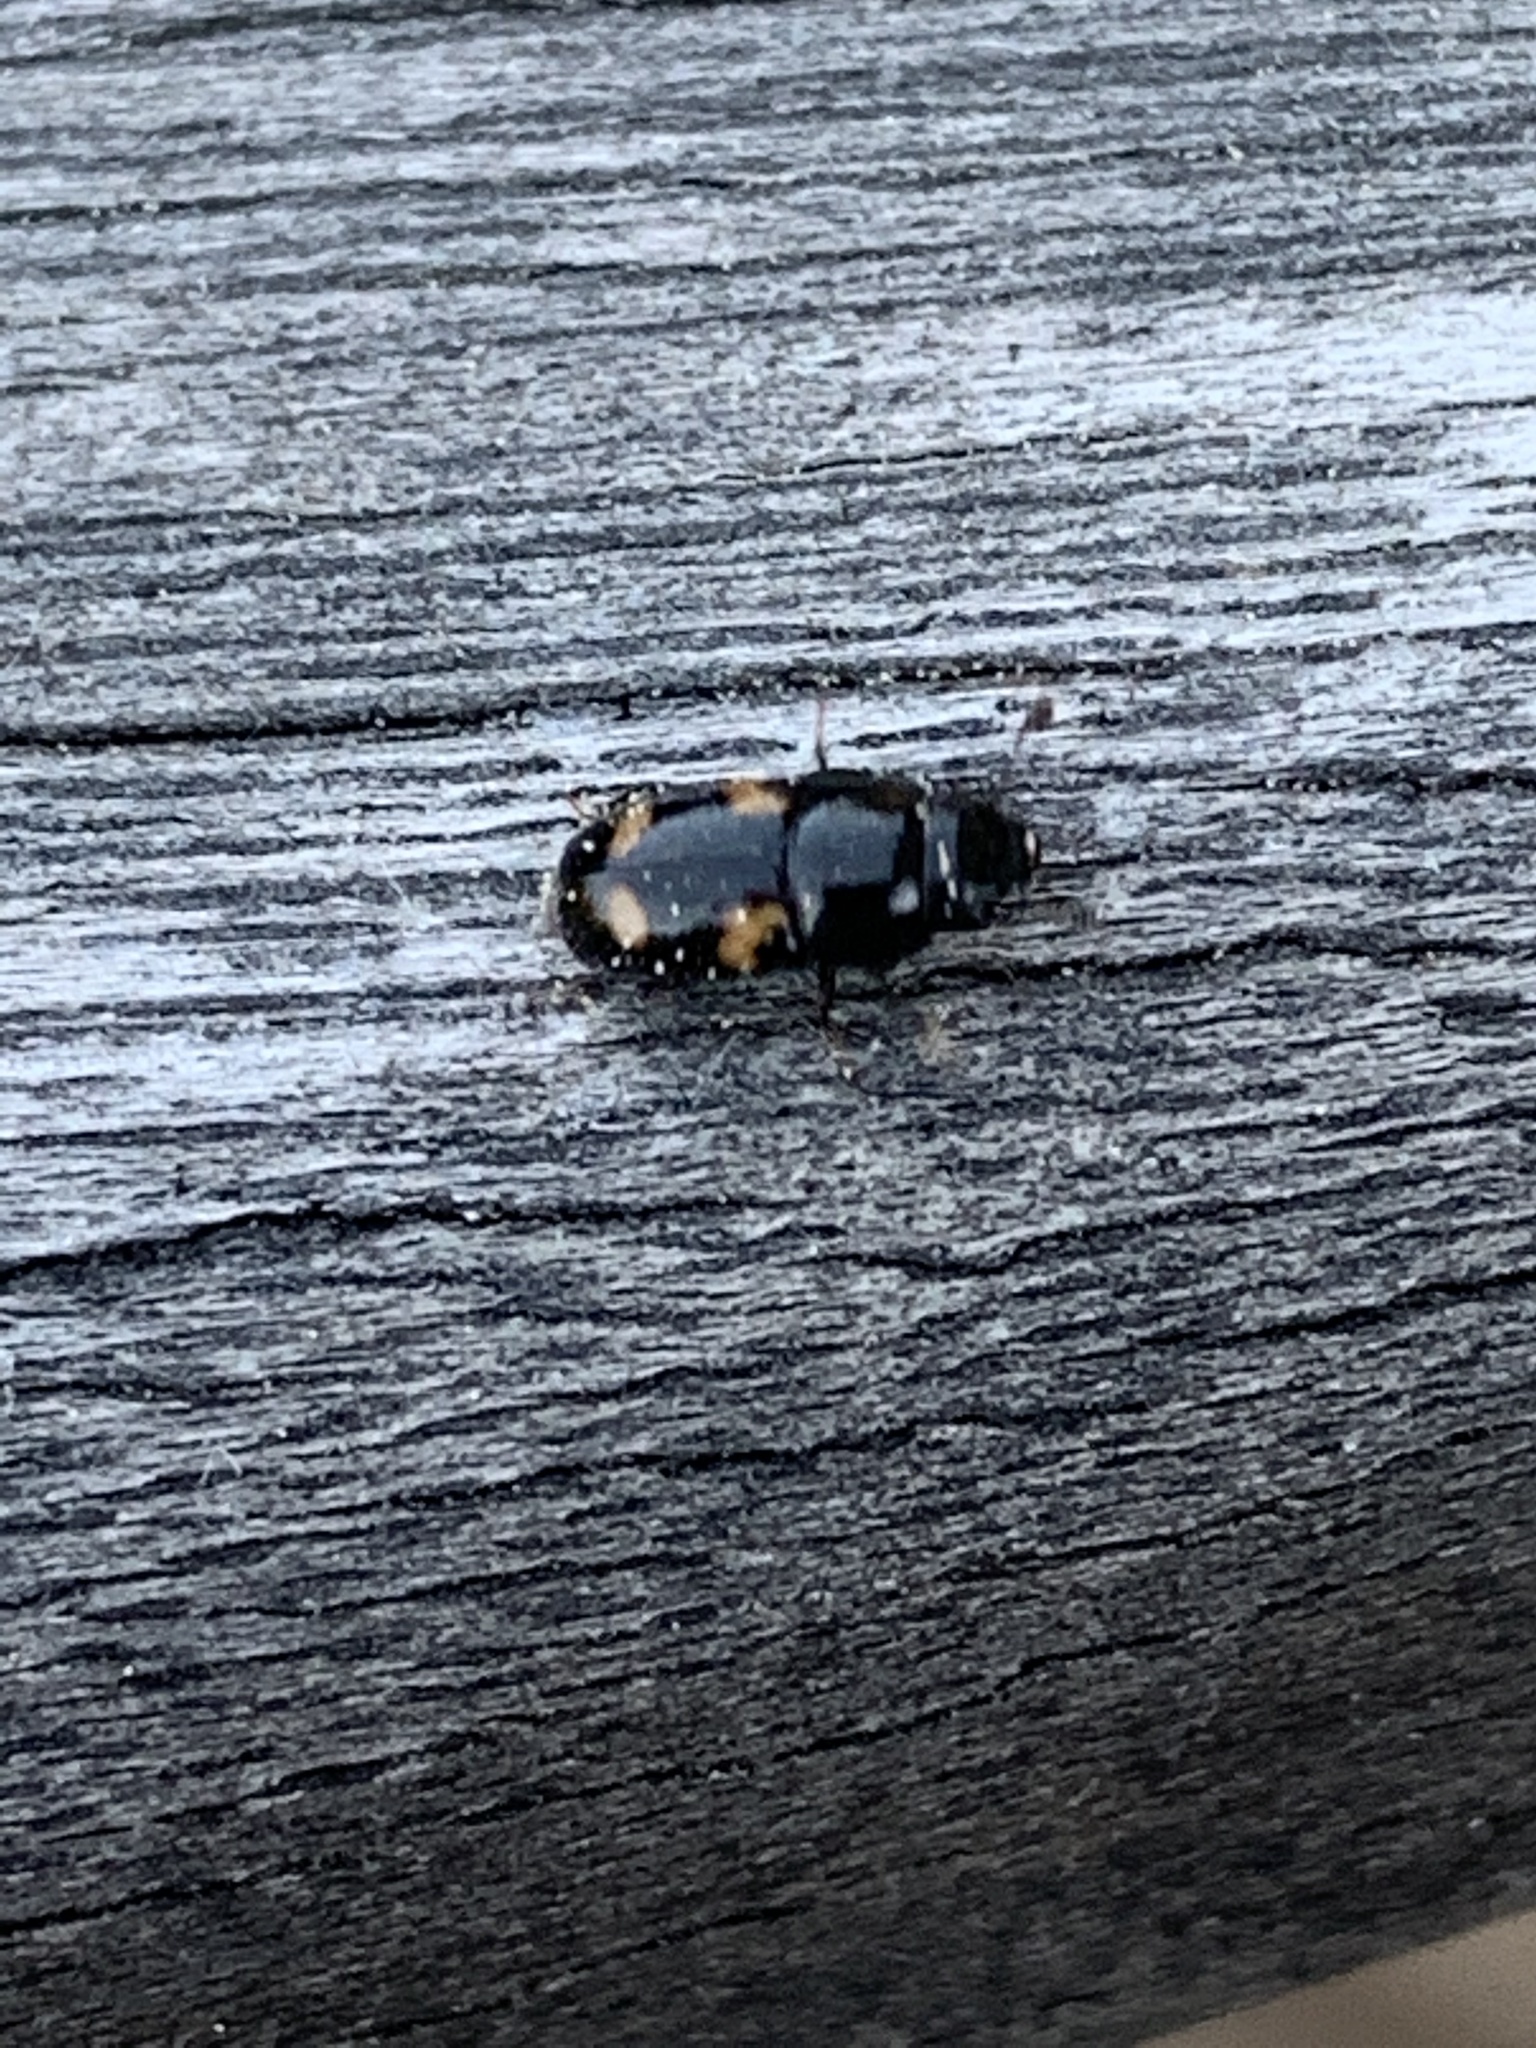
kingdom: Animalia
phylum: Arthropoda
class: Insecta
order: Coleoptera
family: Nitidulidae
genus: Glischrochilus
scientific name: Glischrochilus quadrisignatus
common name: Picnic beetle
